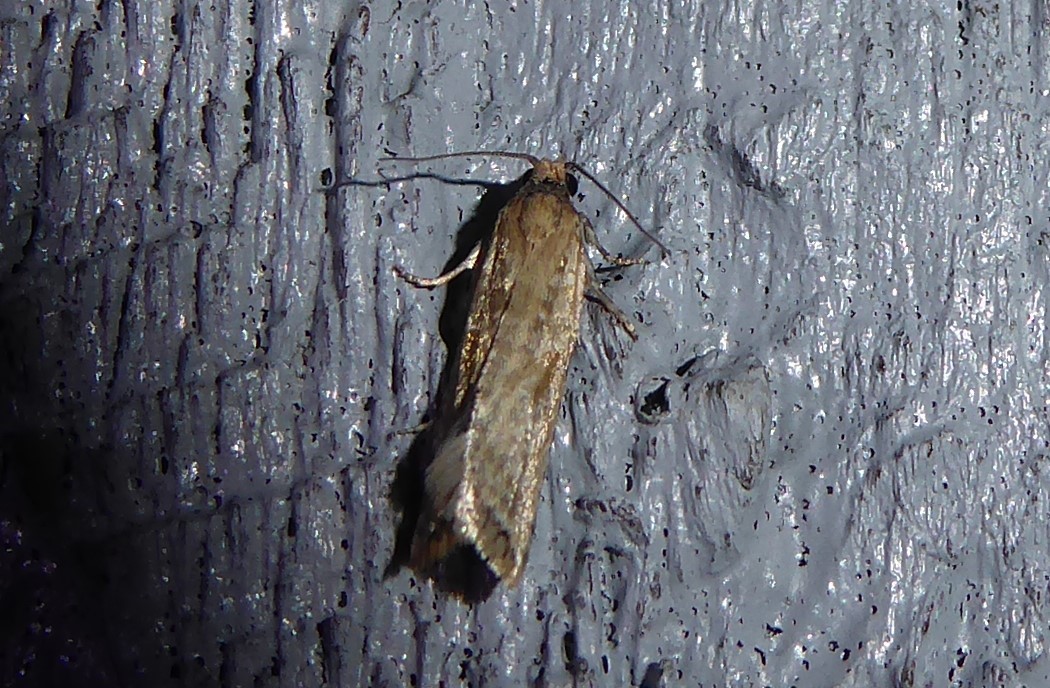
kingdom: Animalia
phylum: Arthropoda
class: Insecta
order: Lepidoptera
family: Tortricidae
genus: Capua
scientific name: Capua semiferana
